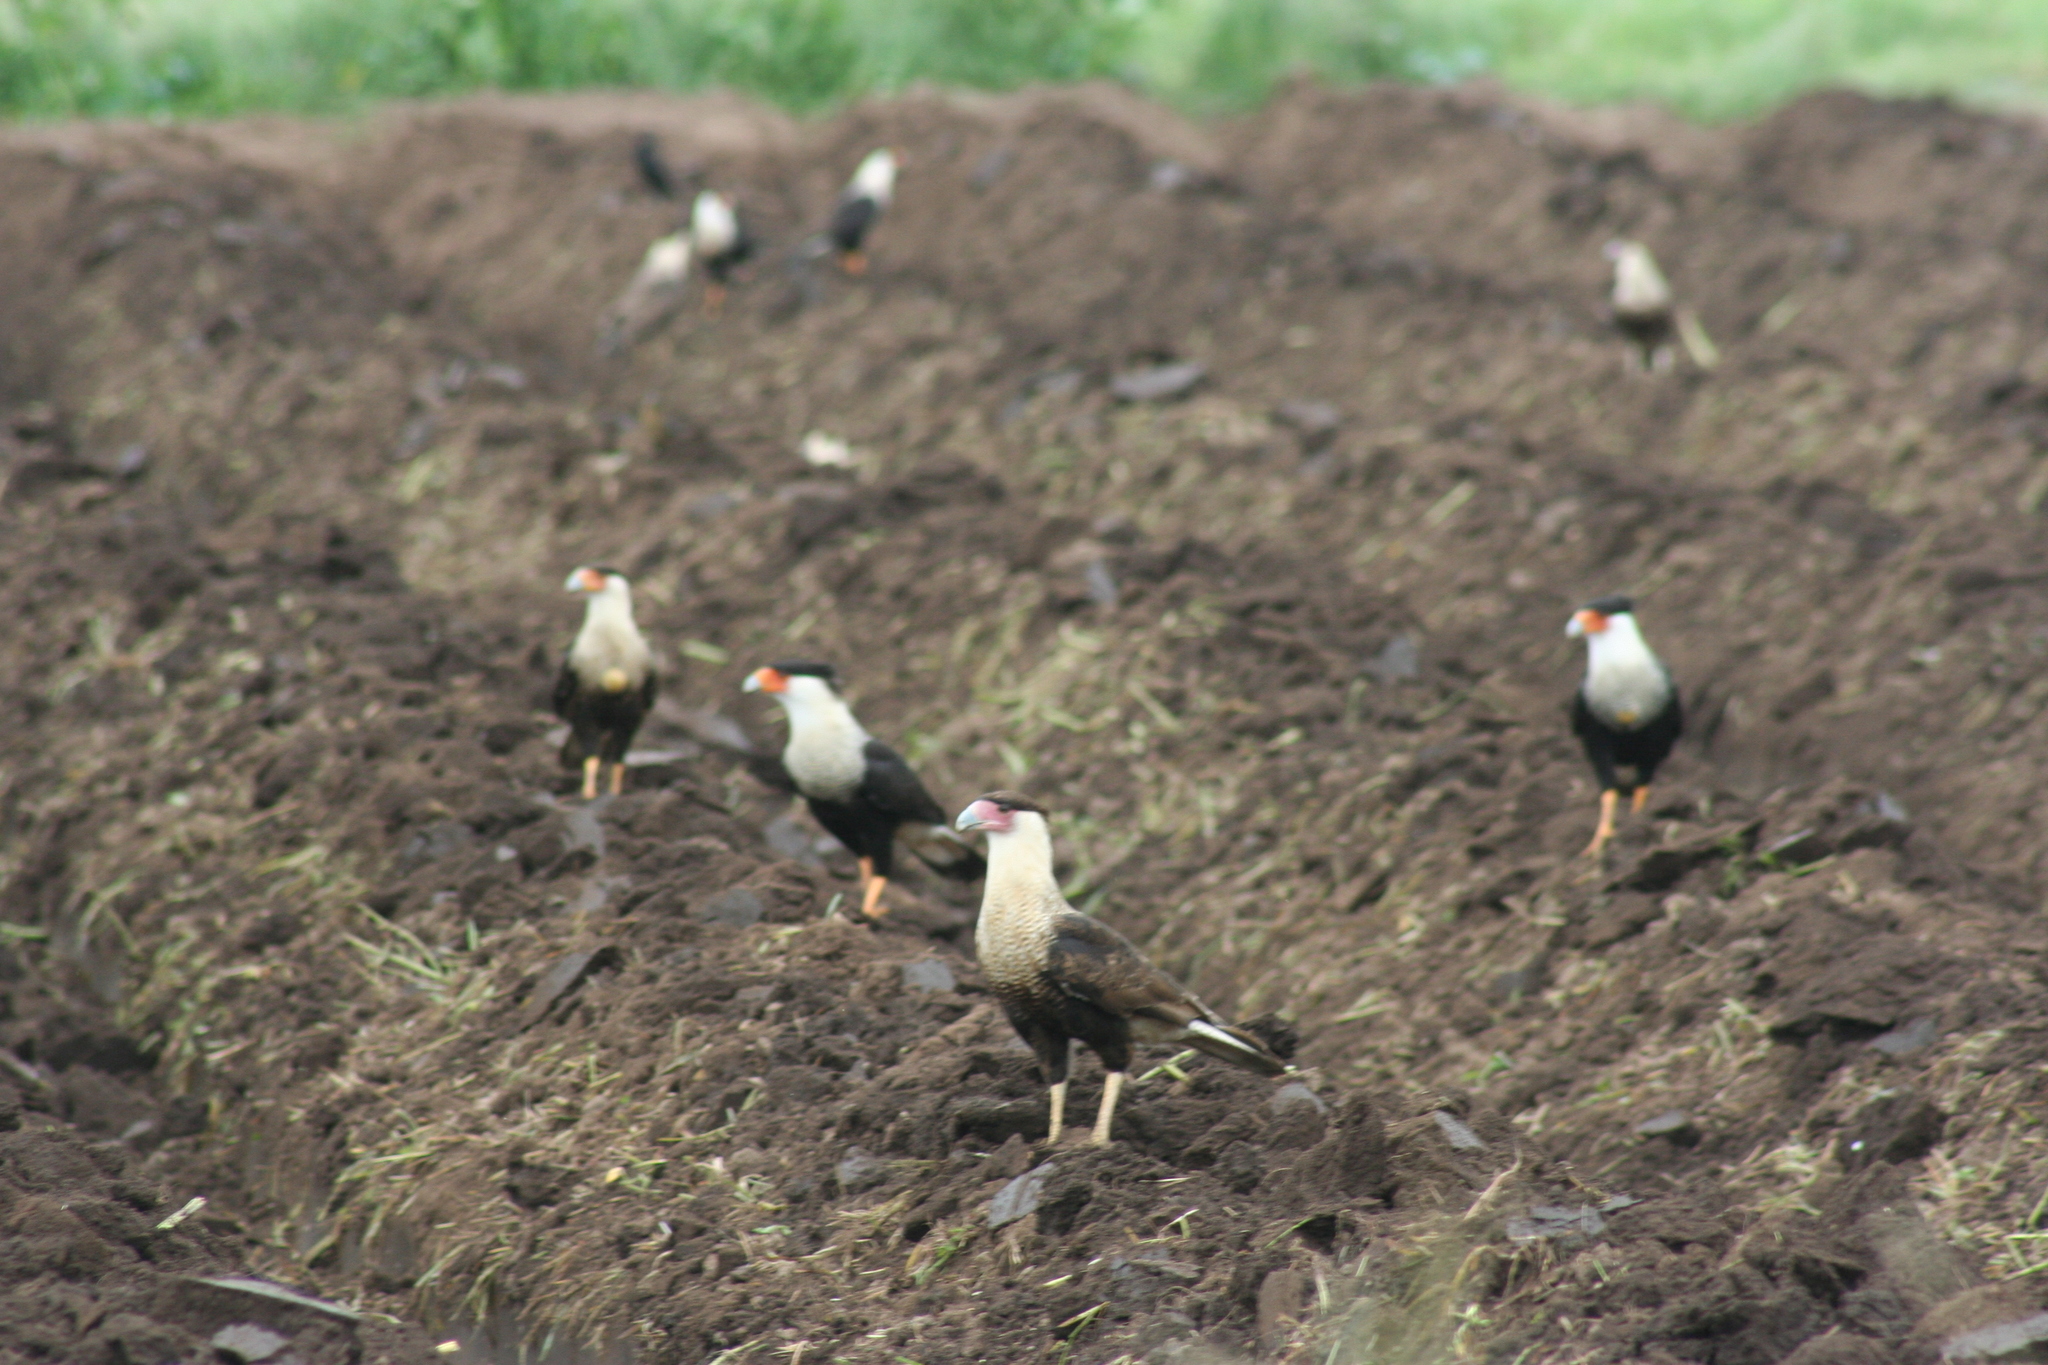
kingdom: Animalia
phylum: Chordata
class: Aves
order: Falconiformes
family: Falconidae
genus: Caracara
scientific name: Caracara plancus
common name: Southern caracara
